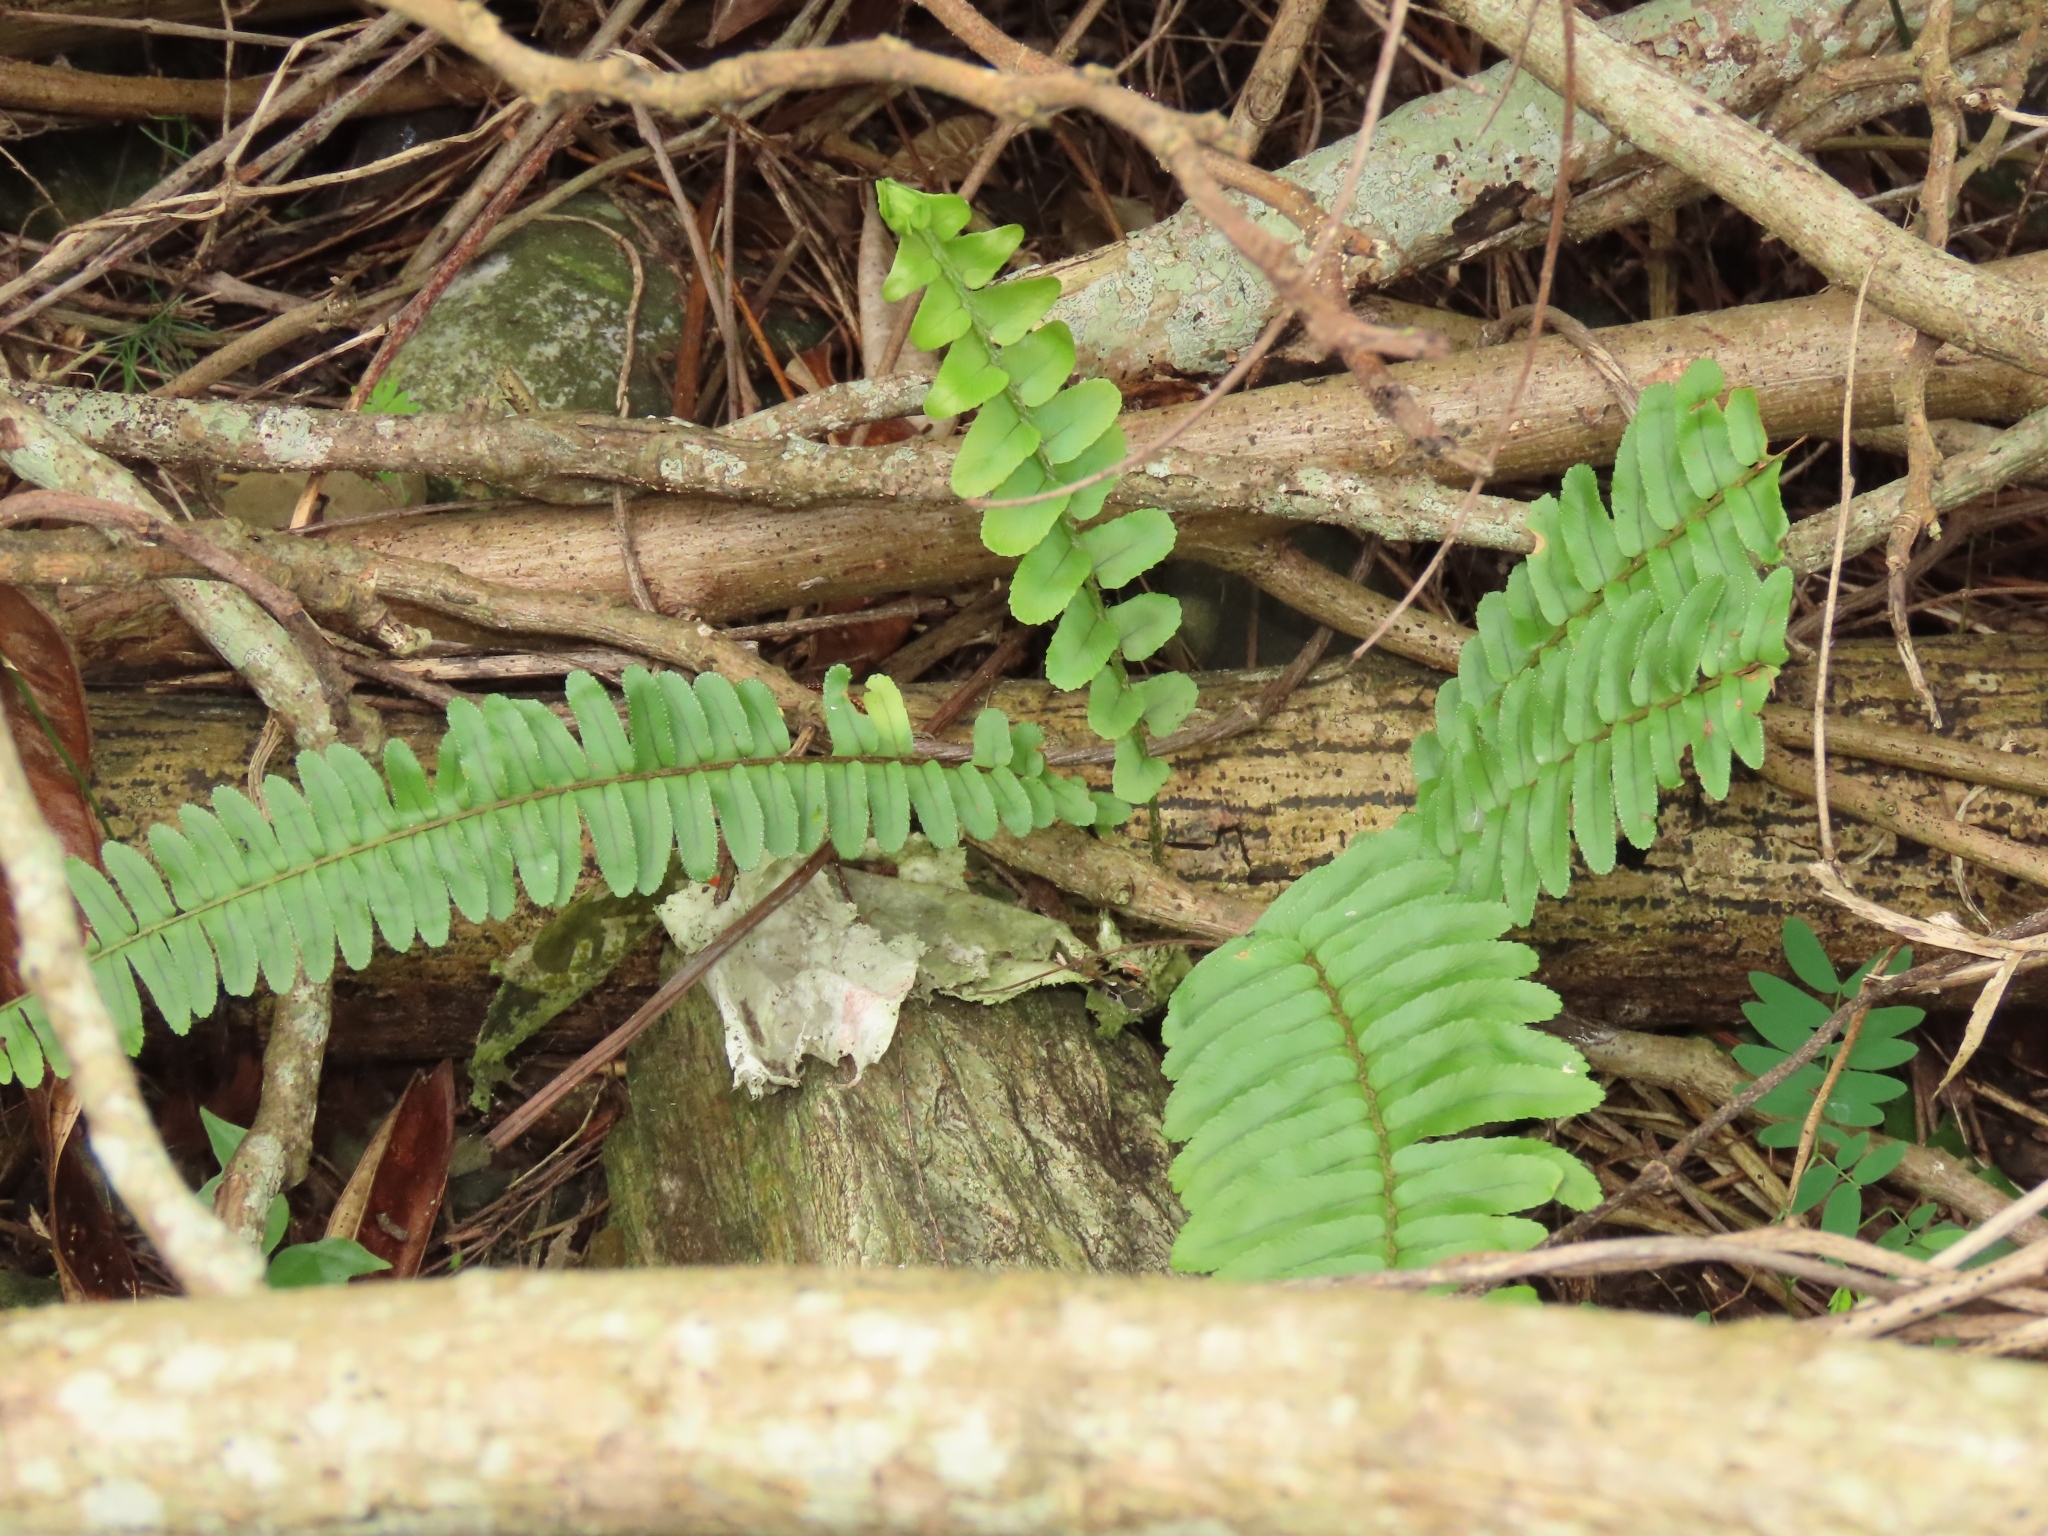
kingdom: Plantae
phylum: Tracheophyta
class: Polypodiopsida
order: Polypodiales
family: Nephrolepidaceae
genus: Nephrolepis
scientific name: Nephrolepis cordifolia
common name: Narrow swordfern
